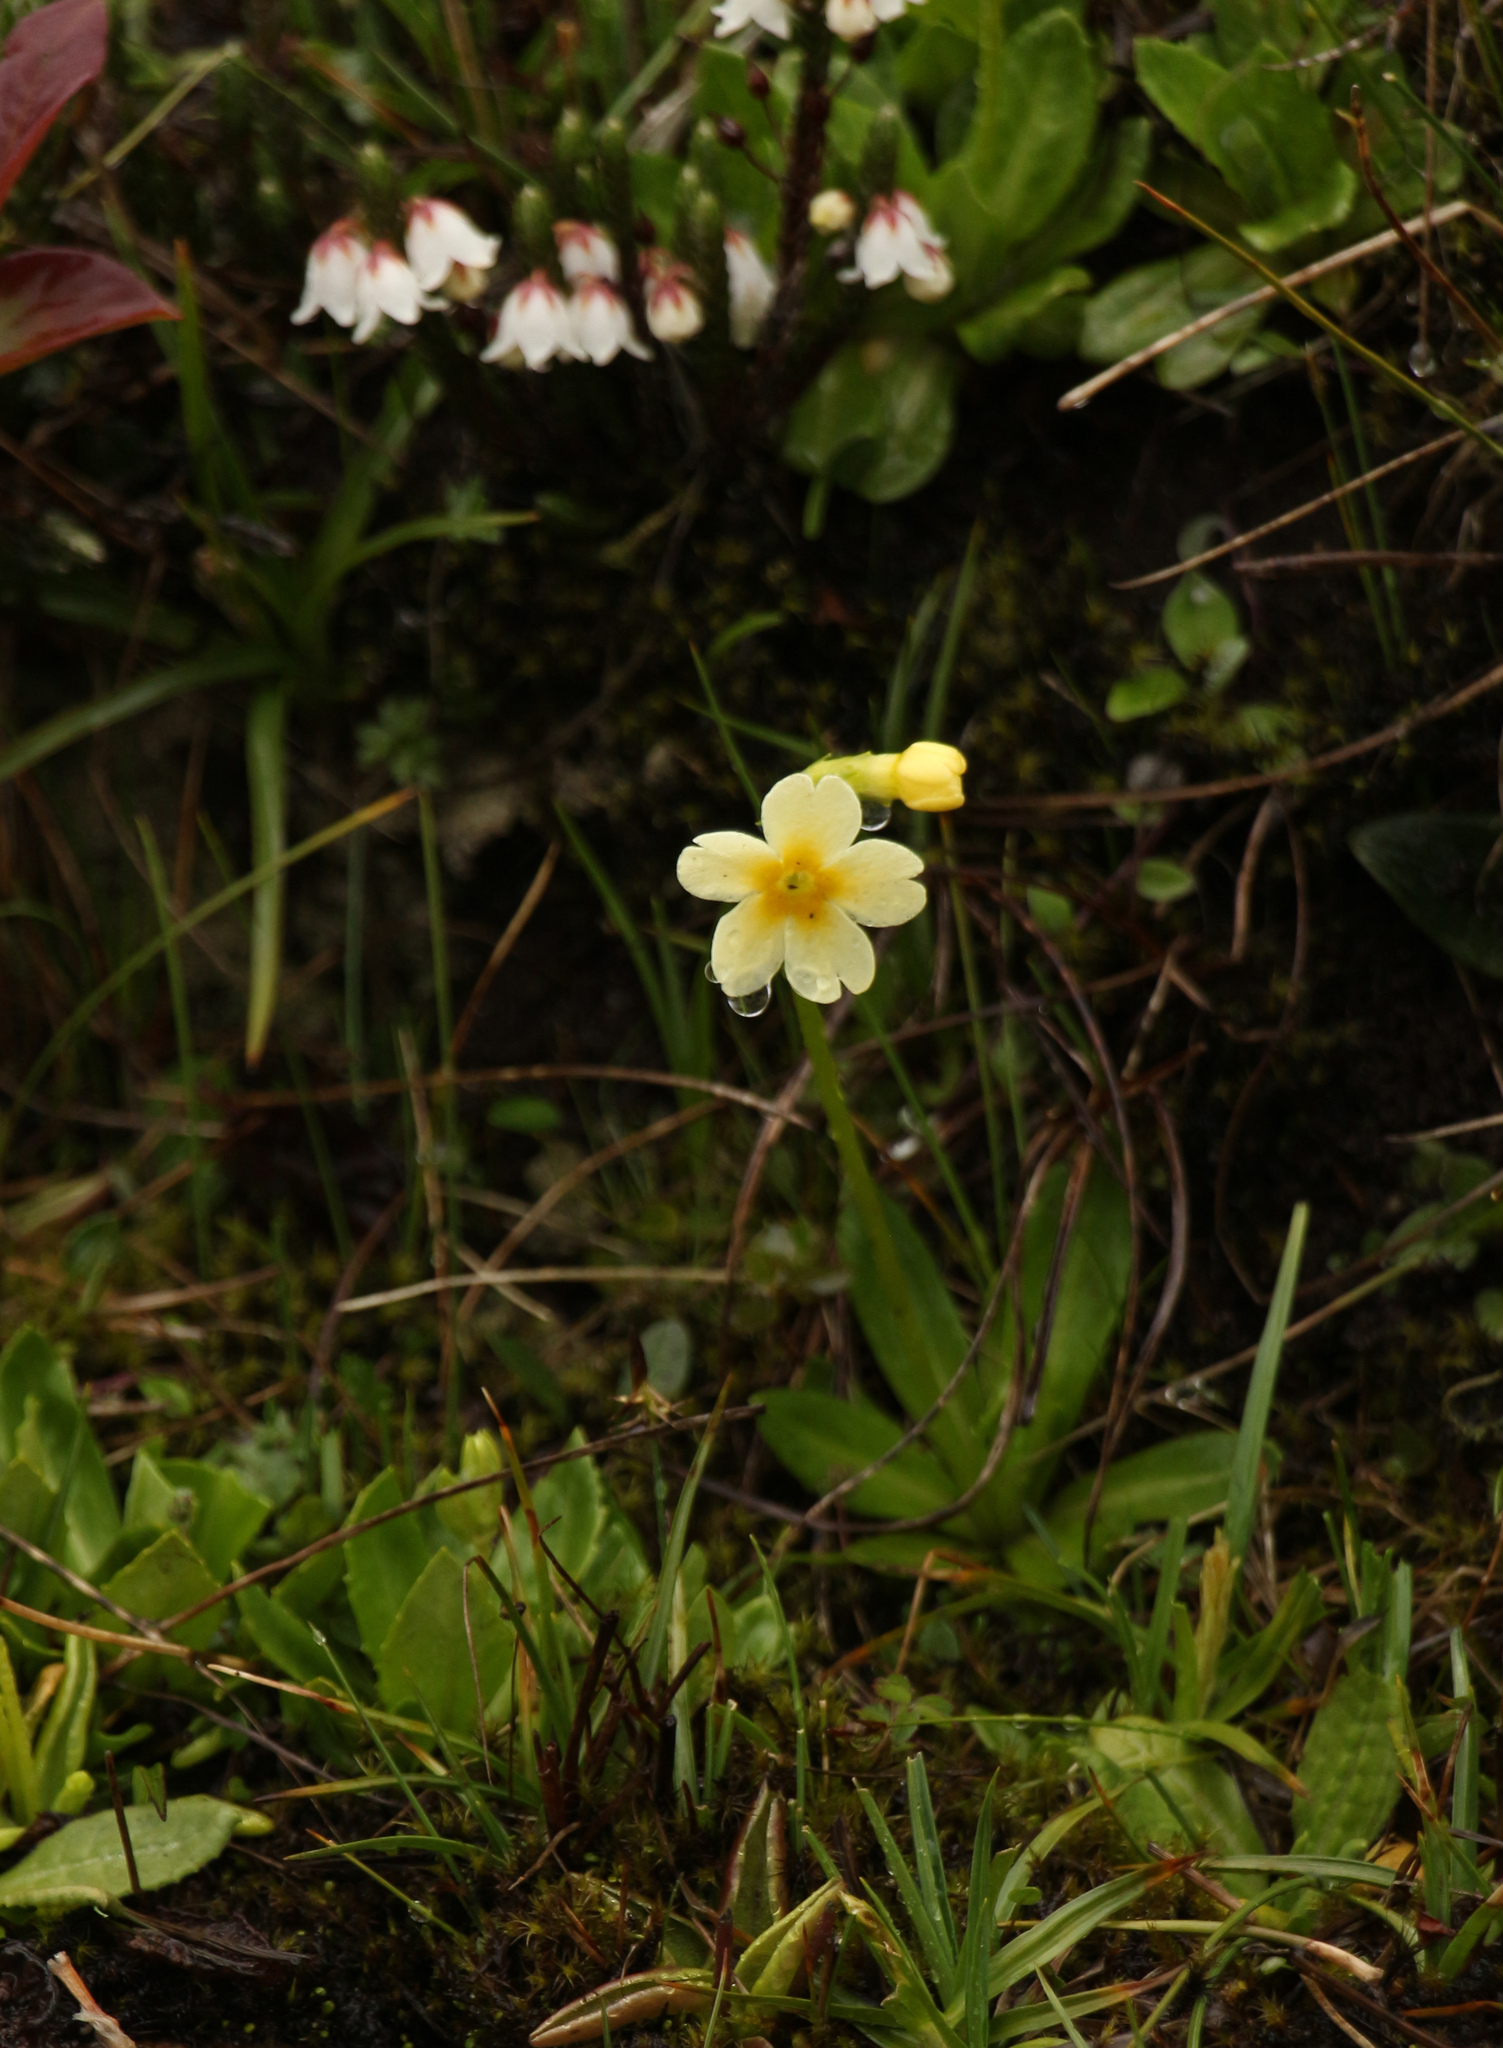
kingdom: Plantae
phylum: Tracheophyta
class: Magnoliopsida
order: Ericales
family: Primulaceae
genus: Primula
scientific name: Primula dickieana
